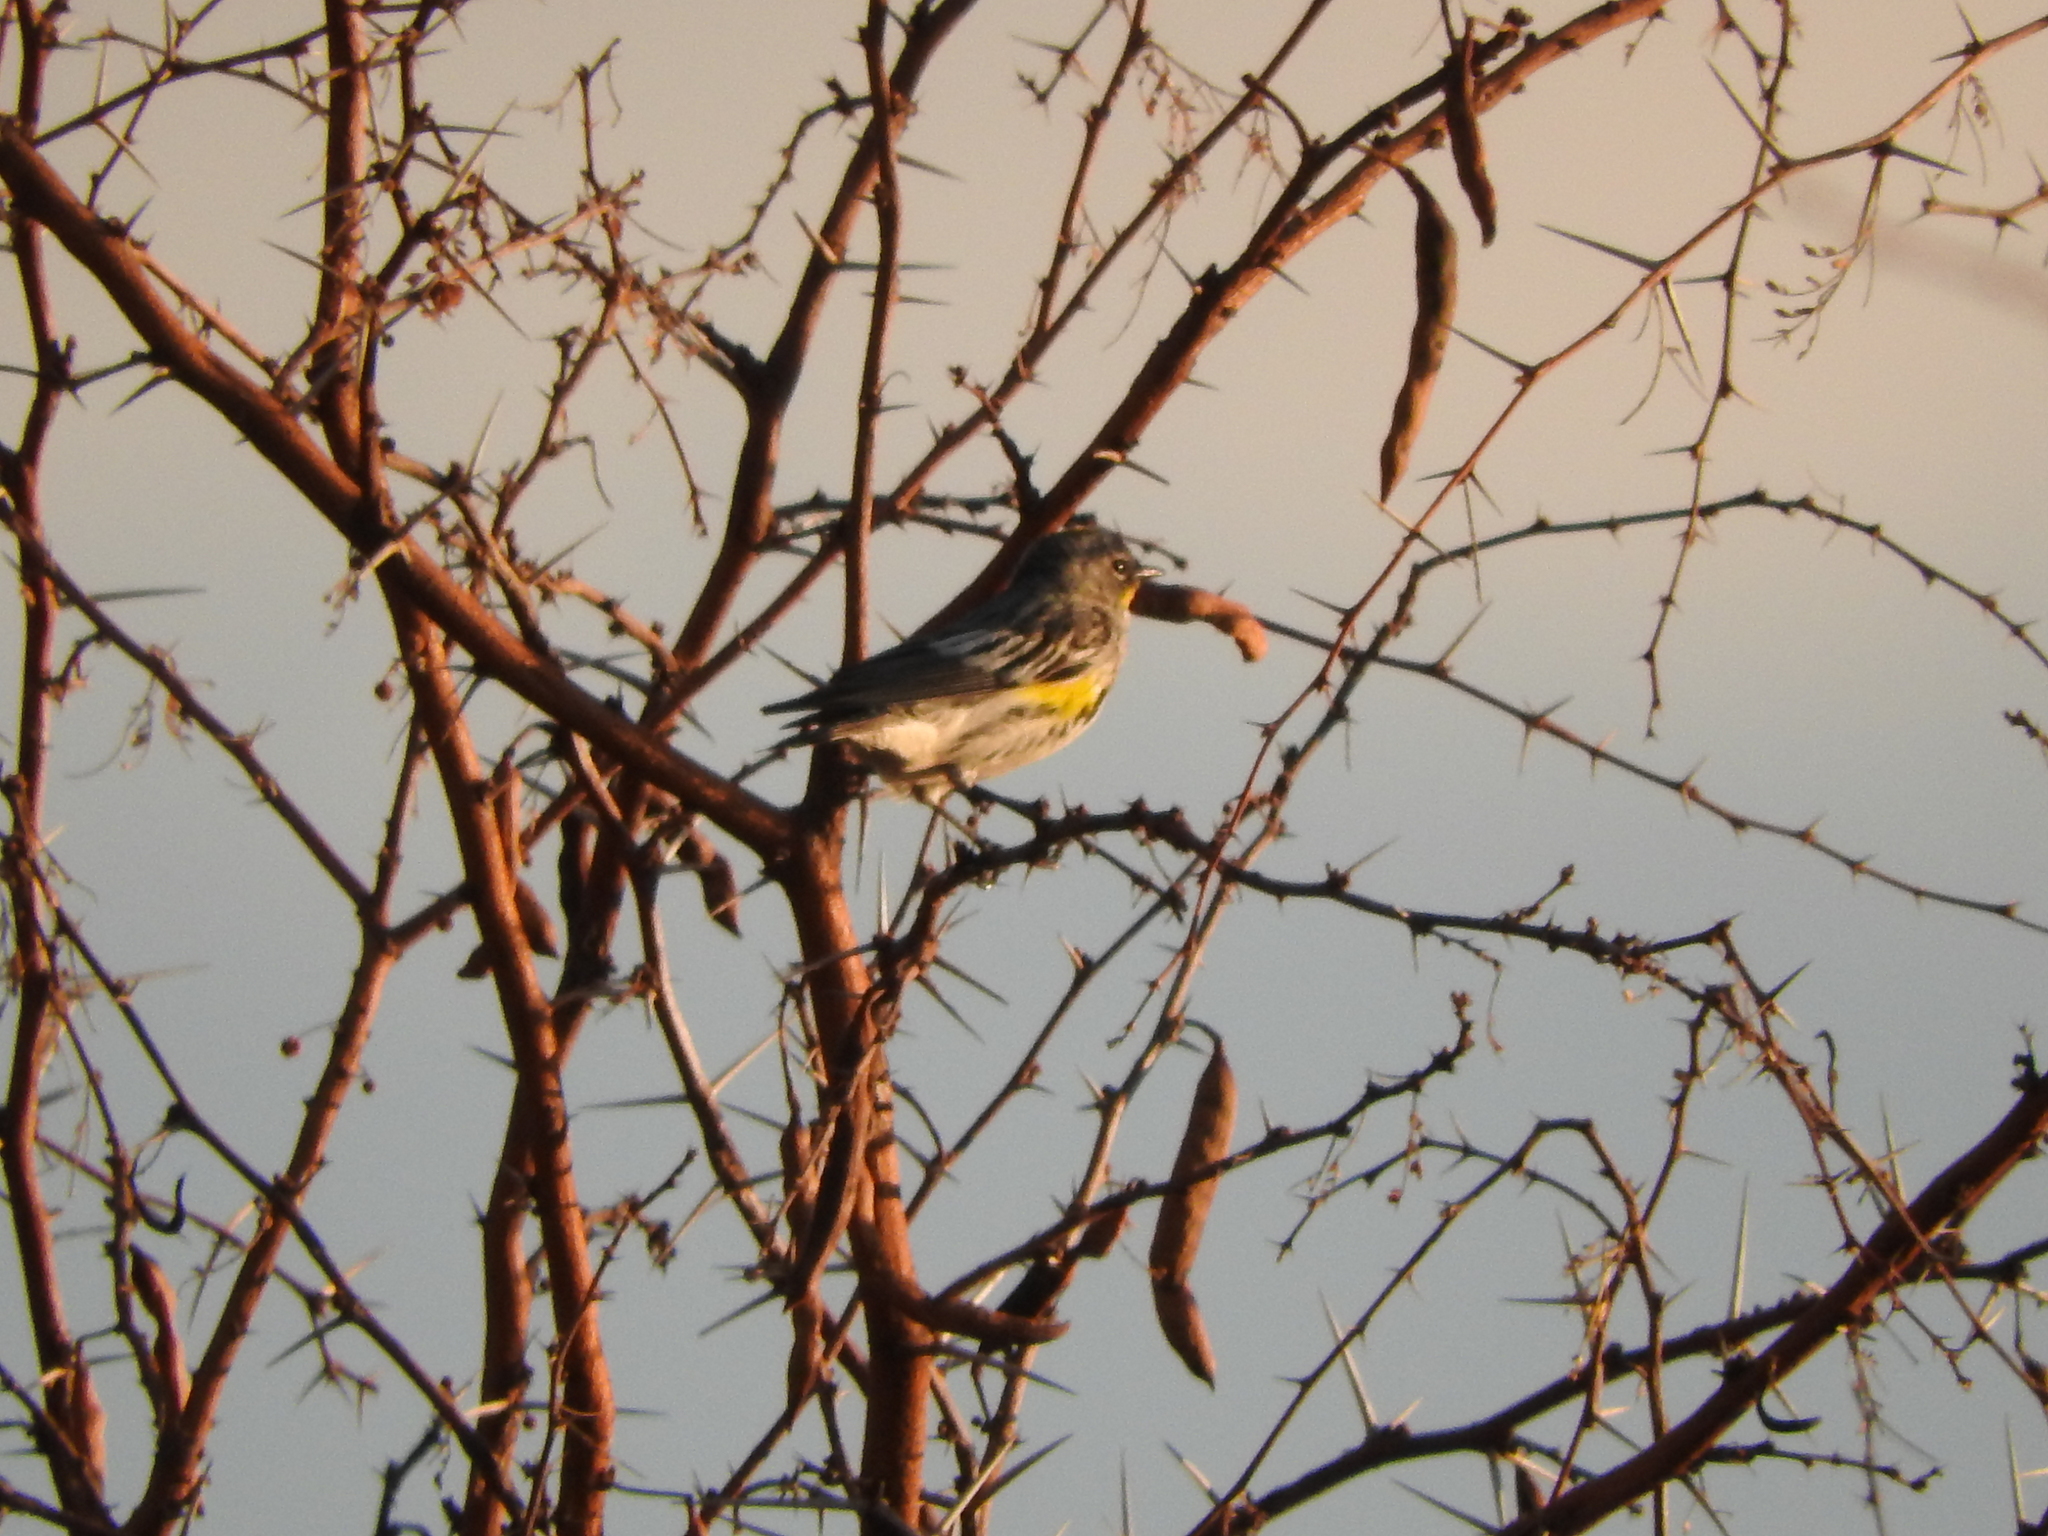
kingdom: Animalia
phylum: Chordata
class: Aves
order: Passeriformes
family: Parulidae
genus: Setophaga
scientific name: Setophaga coronata
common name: Myrtle warbler
